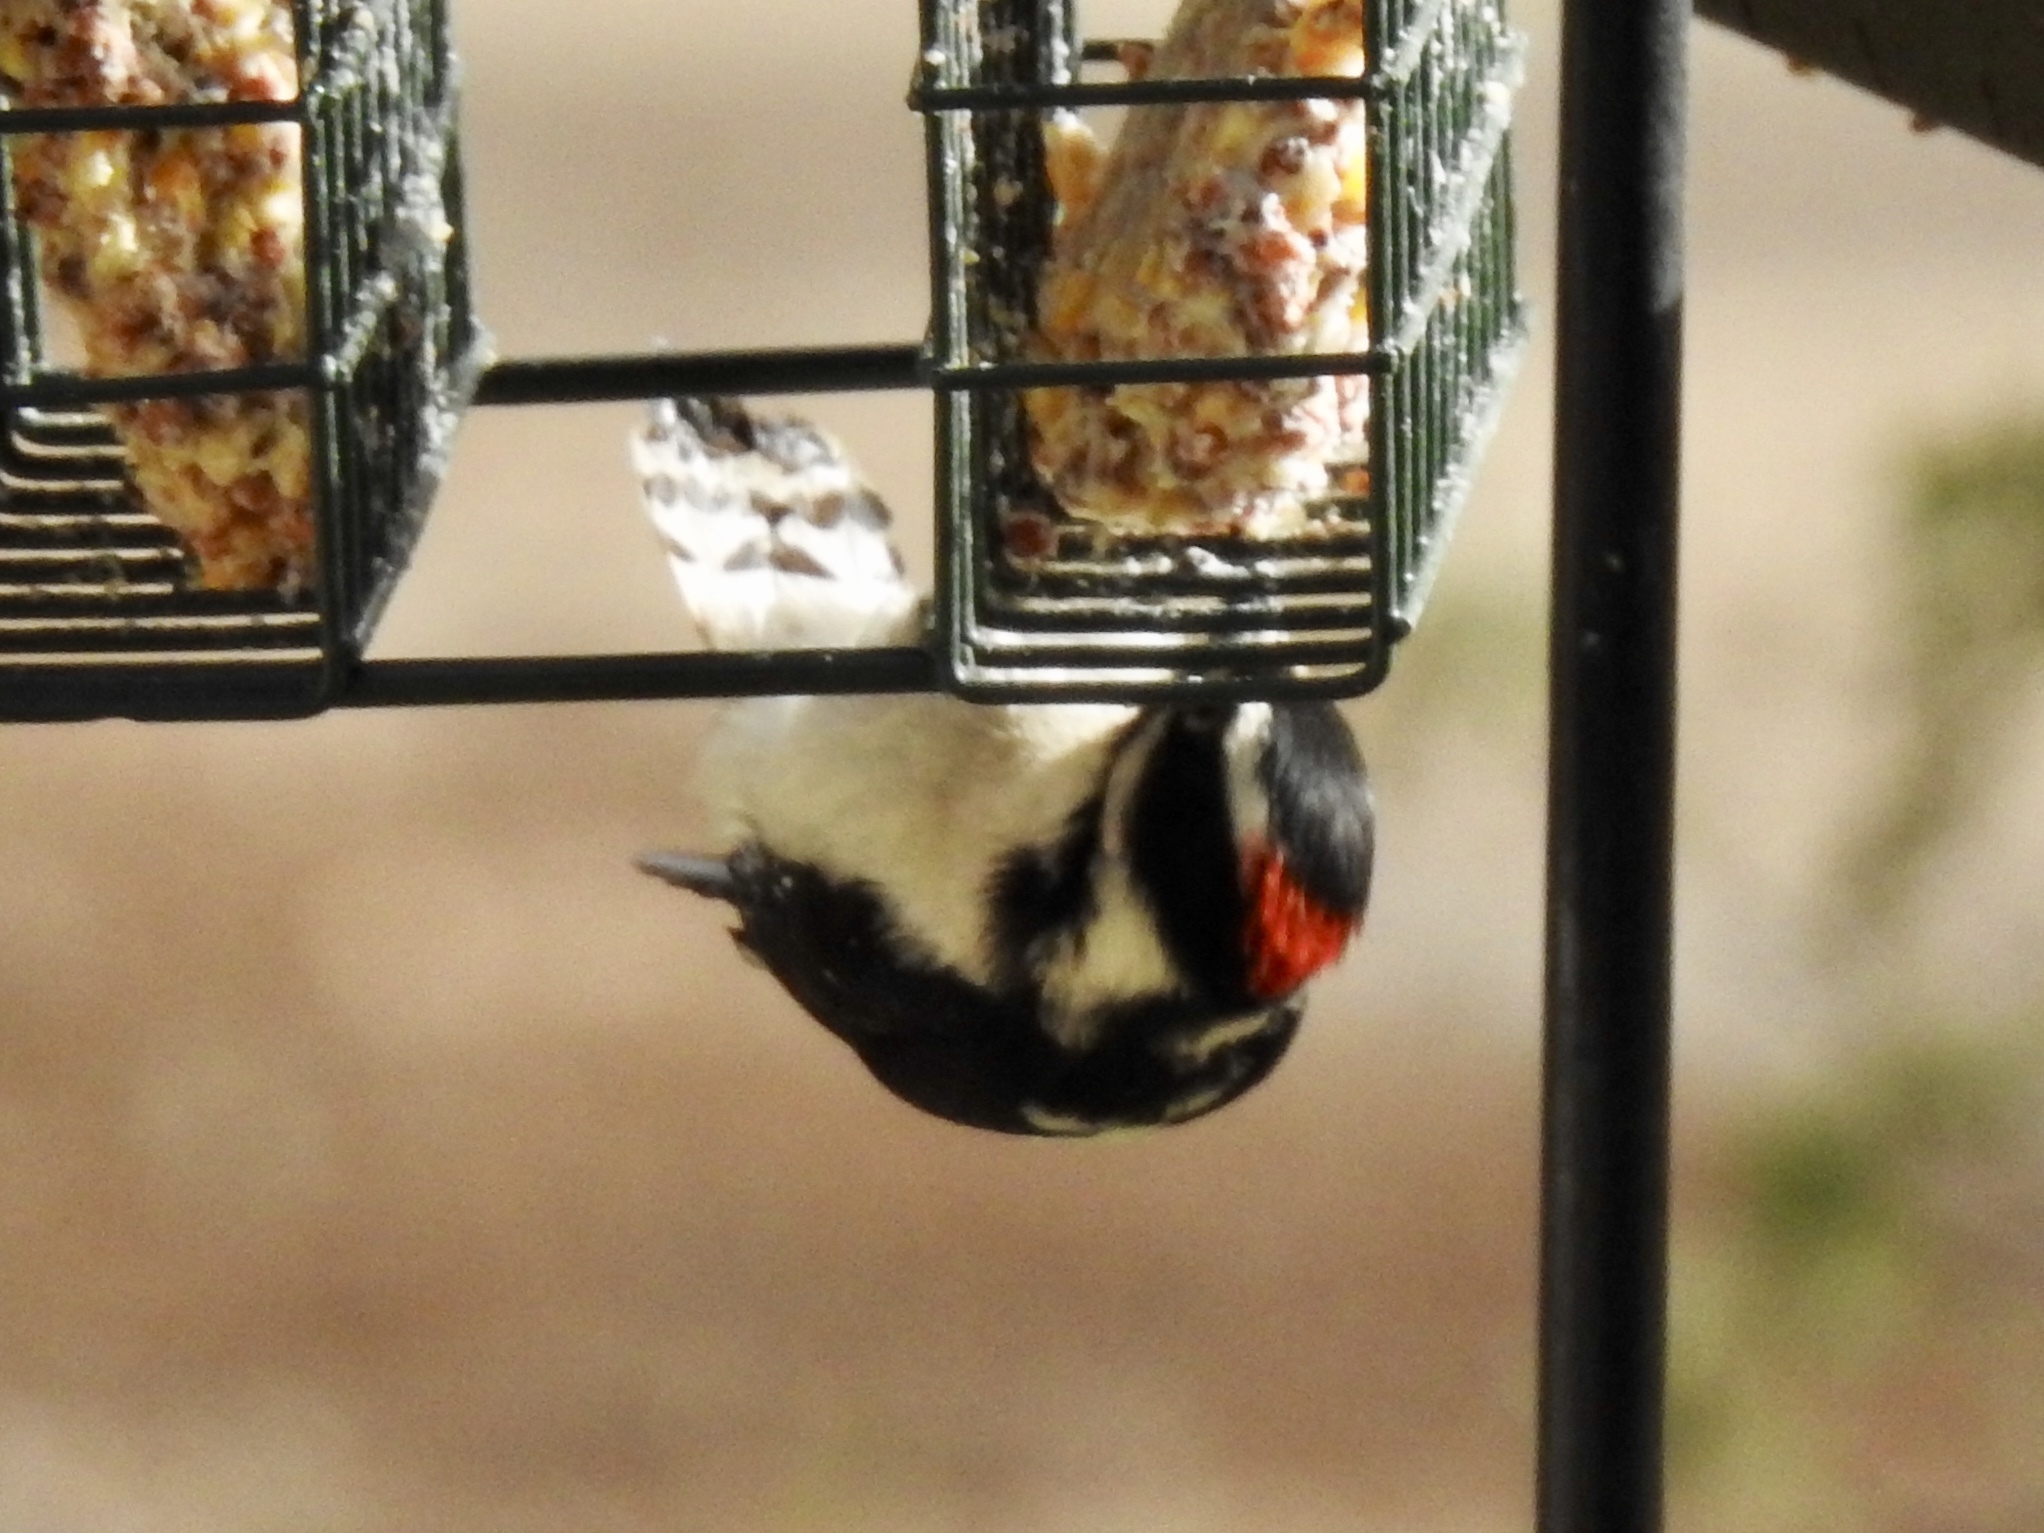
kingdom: Animalia
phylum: Chordata
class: Aves
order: Piciformes
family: Picidae
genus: Dryobates
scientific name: Dryobates pubescens
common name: Downy woodpecker
